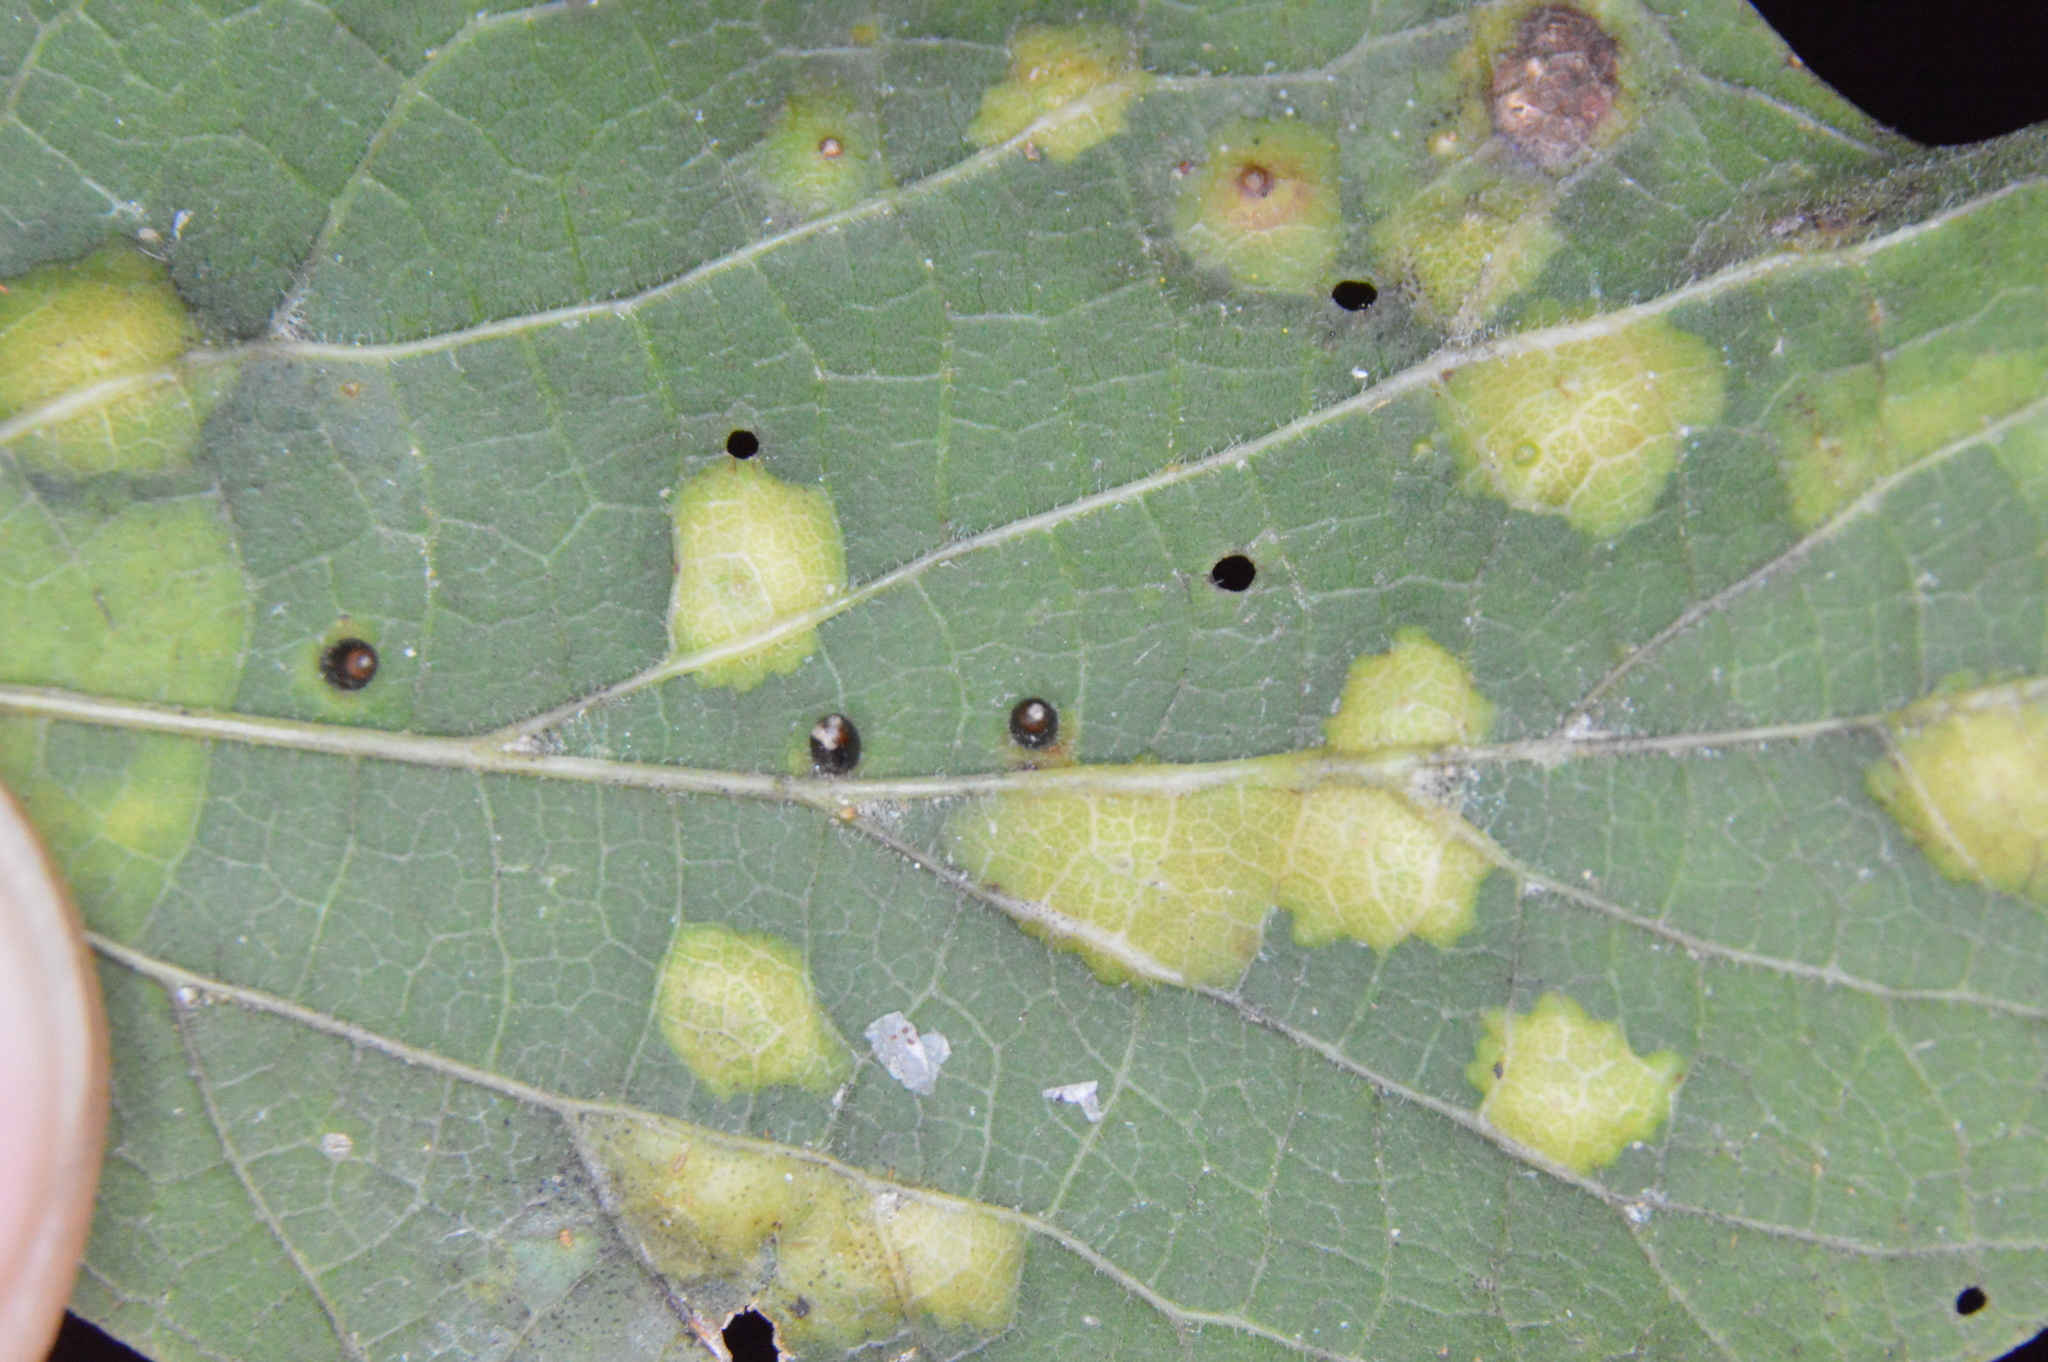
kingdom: Animalia
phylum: Arthropoda
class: Insecta
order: Diptera
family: Cecidomyiidae
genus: Celticecis
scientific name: Celticecis cupiformis
